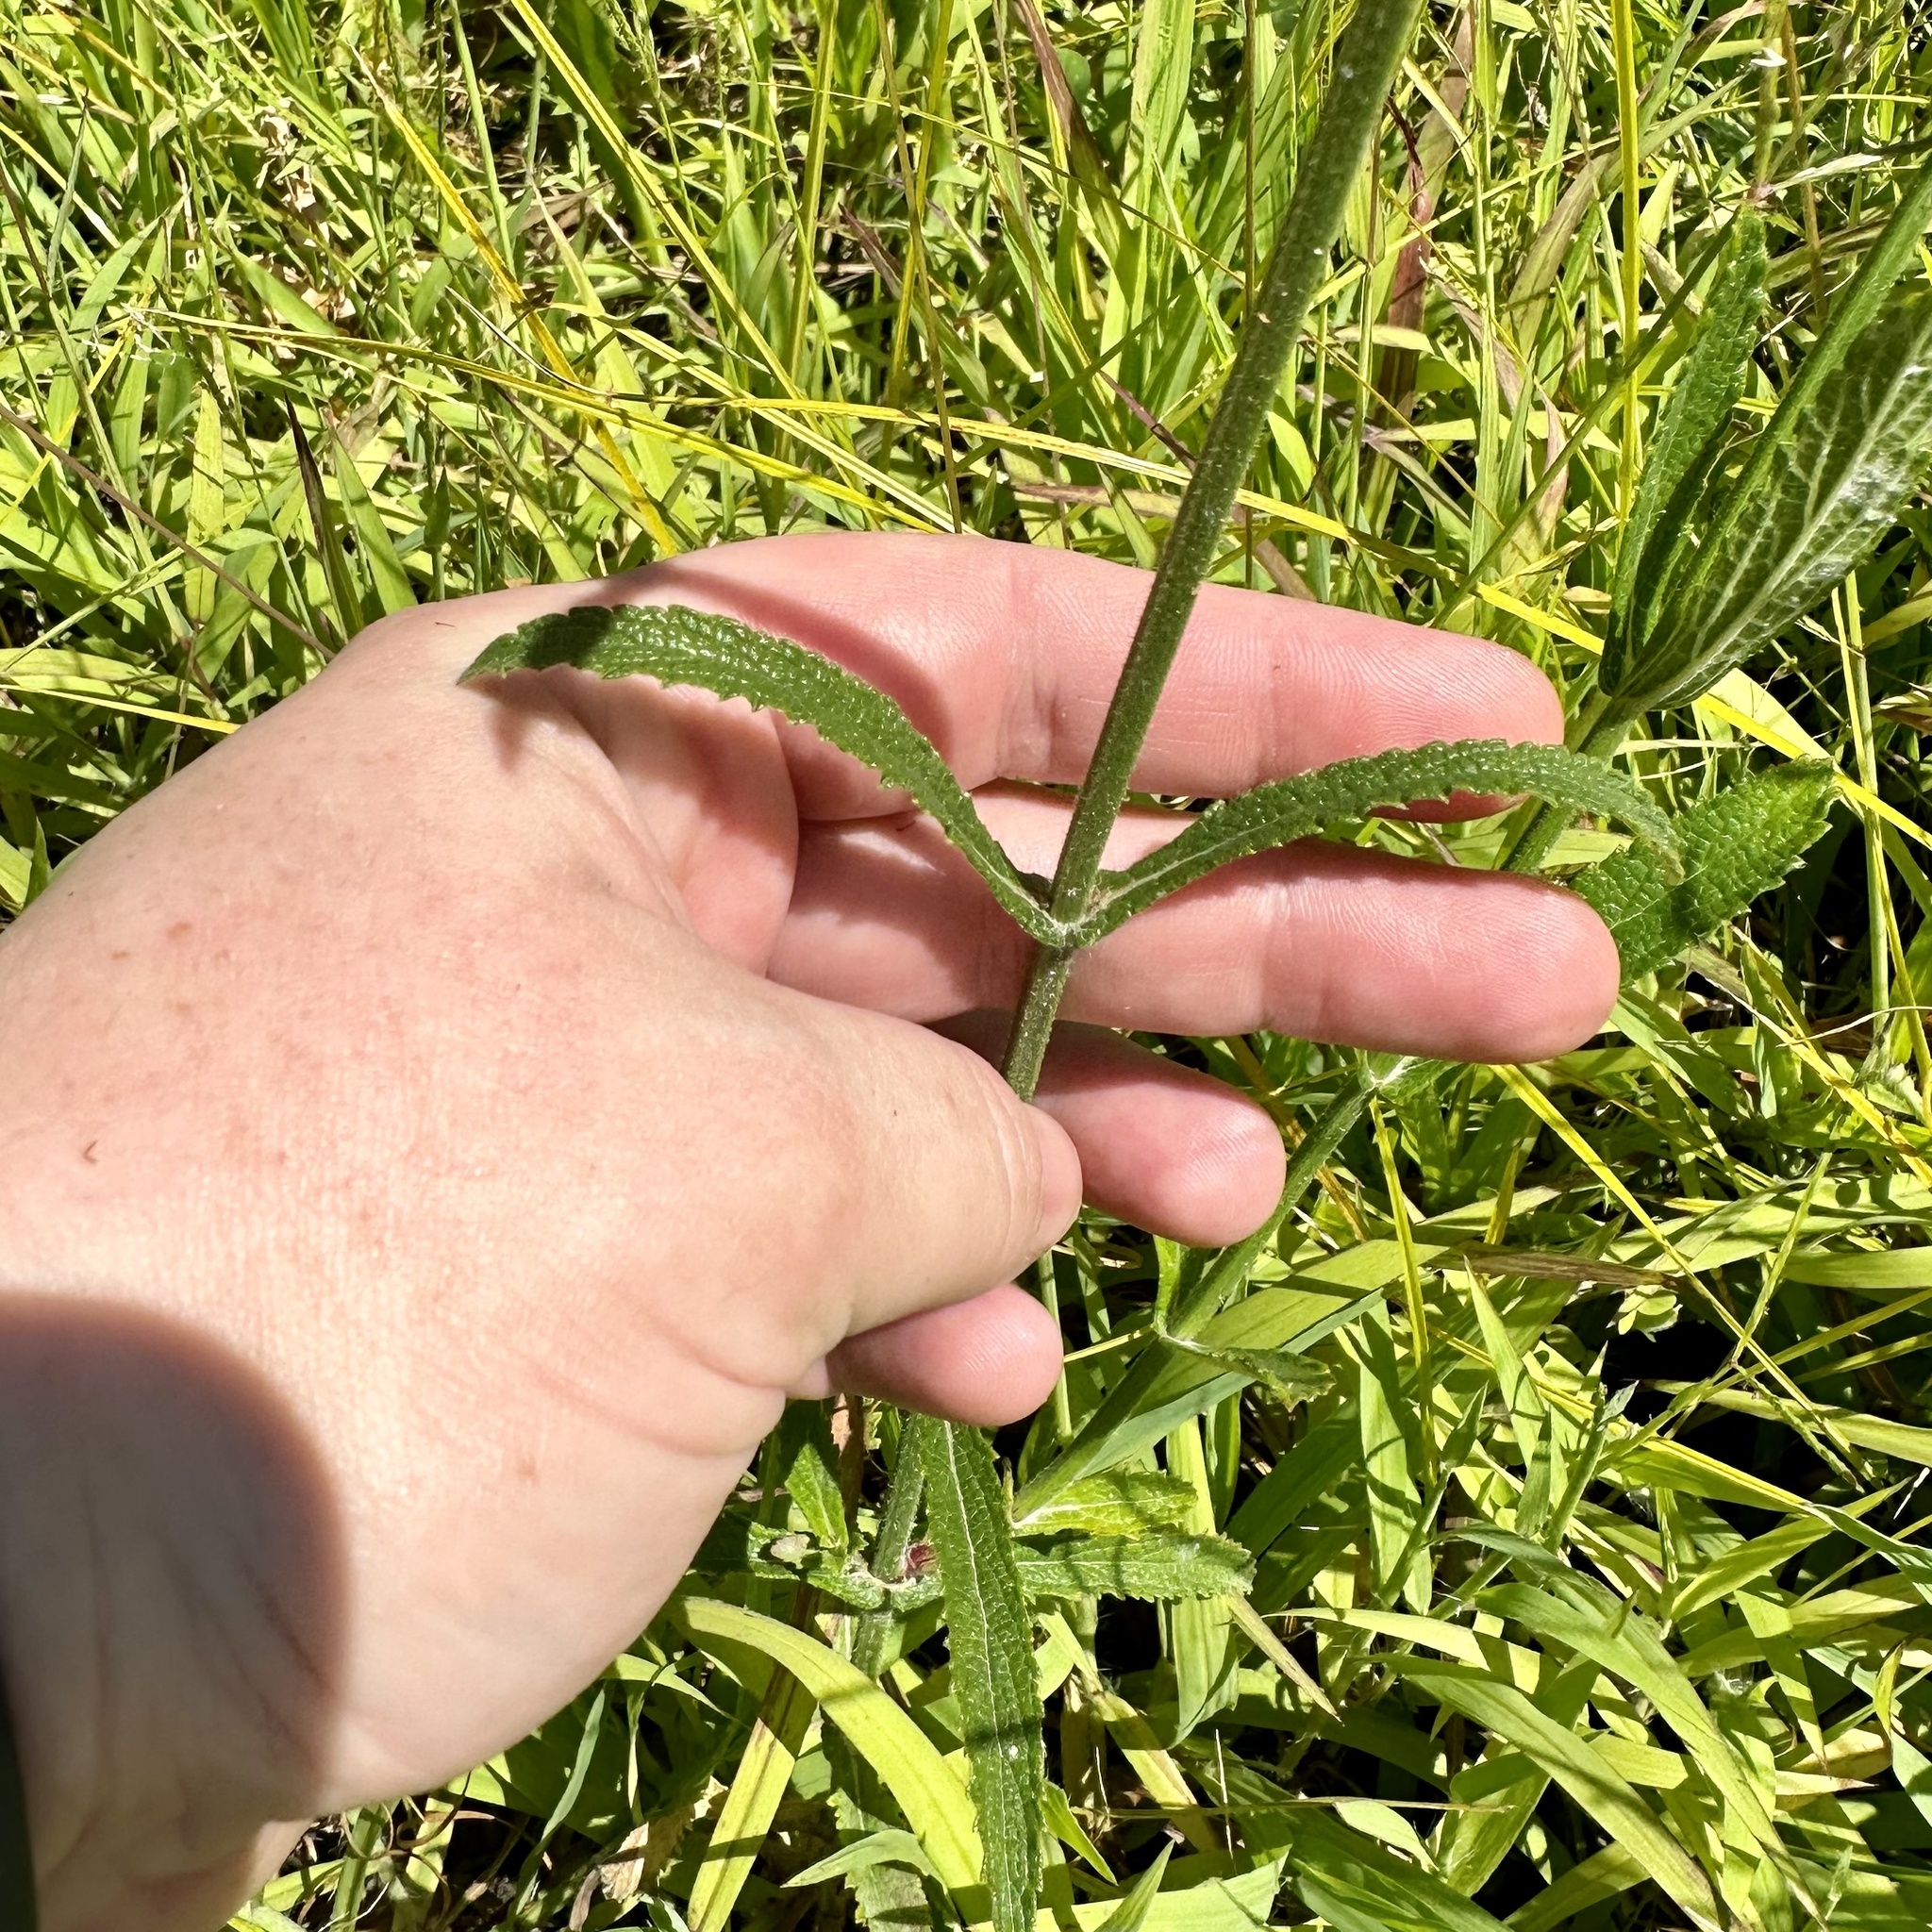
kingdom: Plantae
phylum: Tracheophyta
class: Magnoliopsida
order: Lamiales
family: Verbenaceae
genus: Verbena
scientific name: Verbena bonariensis
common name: Purpletop vervain
